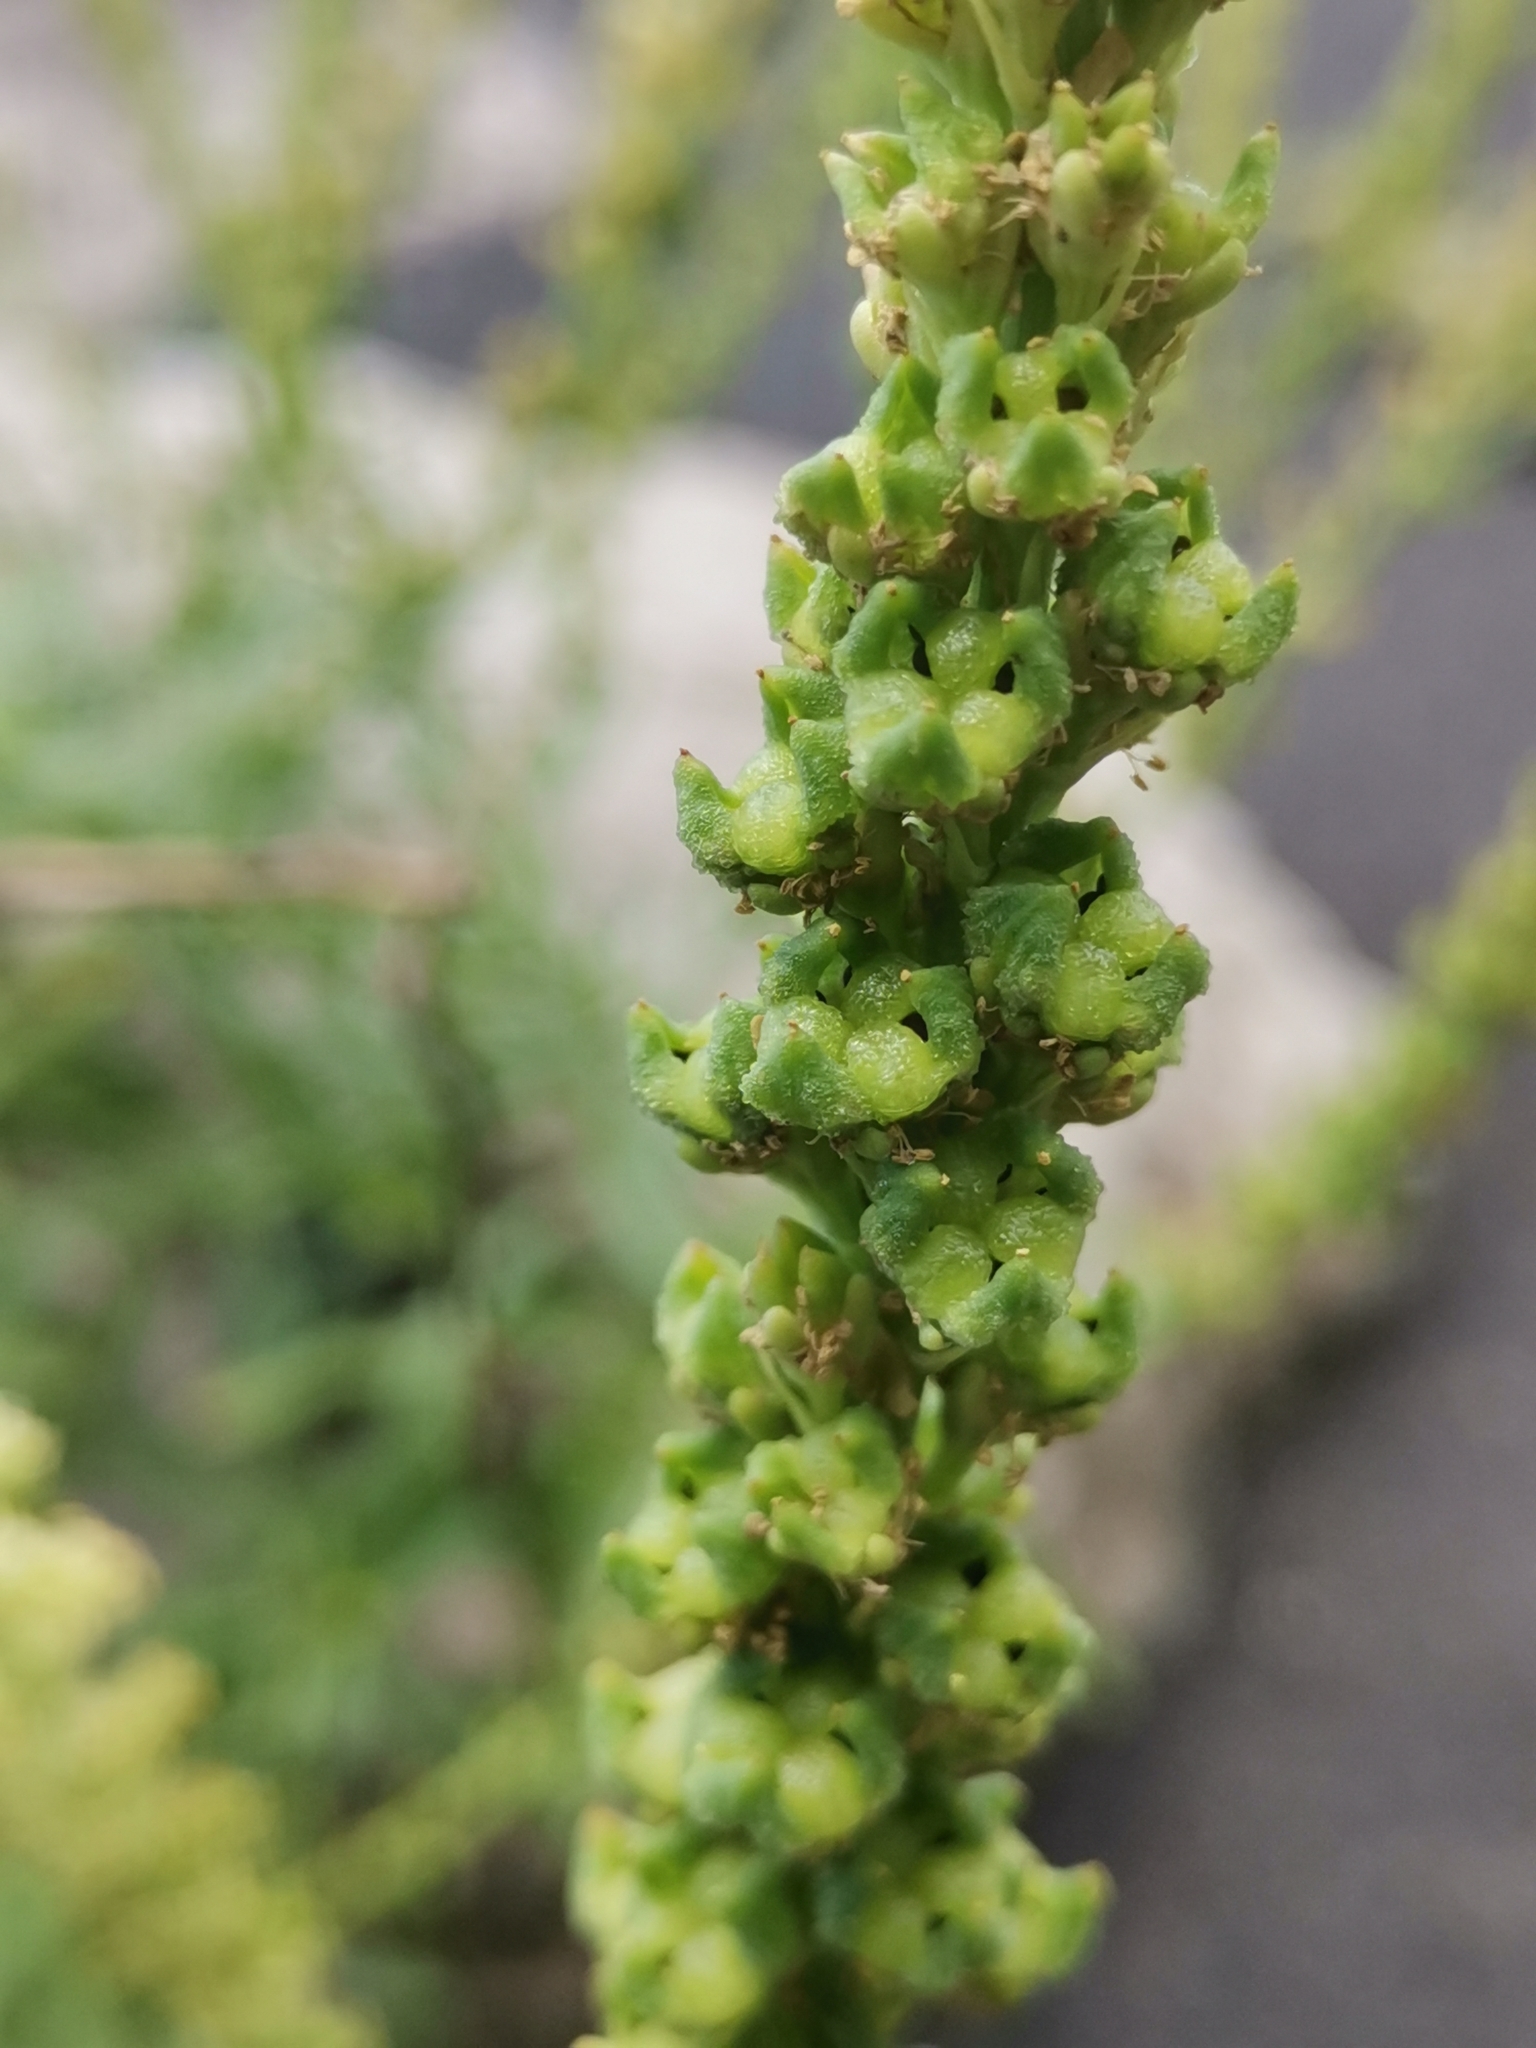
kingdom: Plantae
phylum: Tracheophyta
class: Magnoliopsida
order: Brassicales
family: Resedaceae
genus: Reseda
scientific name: Reseda luteola
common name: Weld
